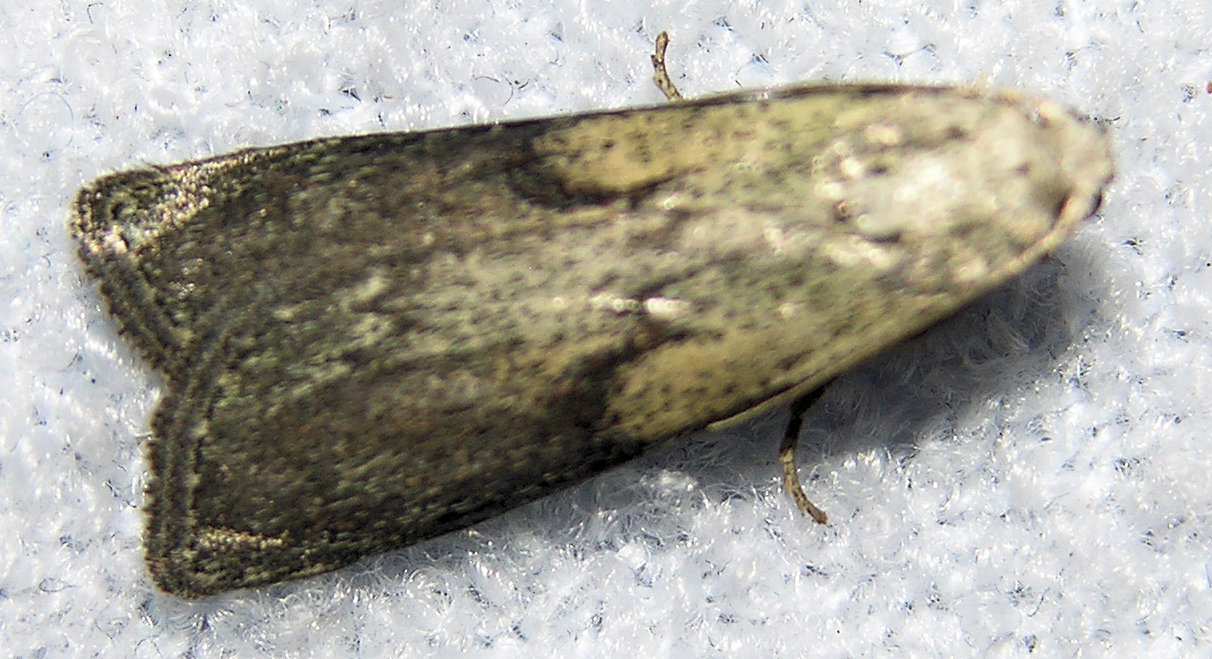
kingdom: Animalia
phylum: Arthropoda
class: Insecta
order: Lepidoptera
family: Pyralidae
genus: Aphomia
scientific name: Aphomia sociella
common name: Bee moth
